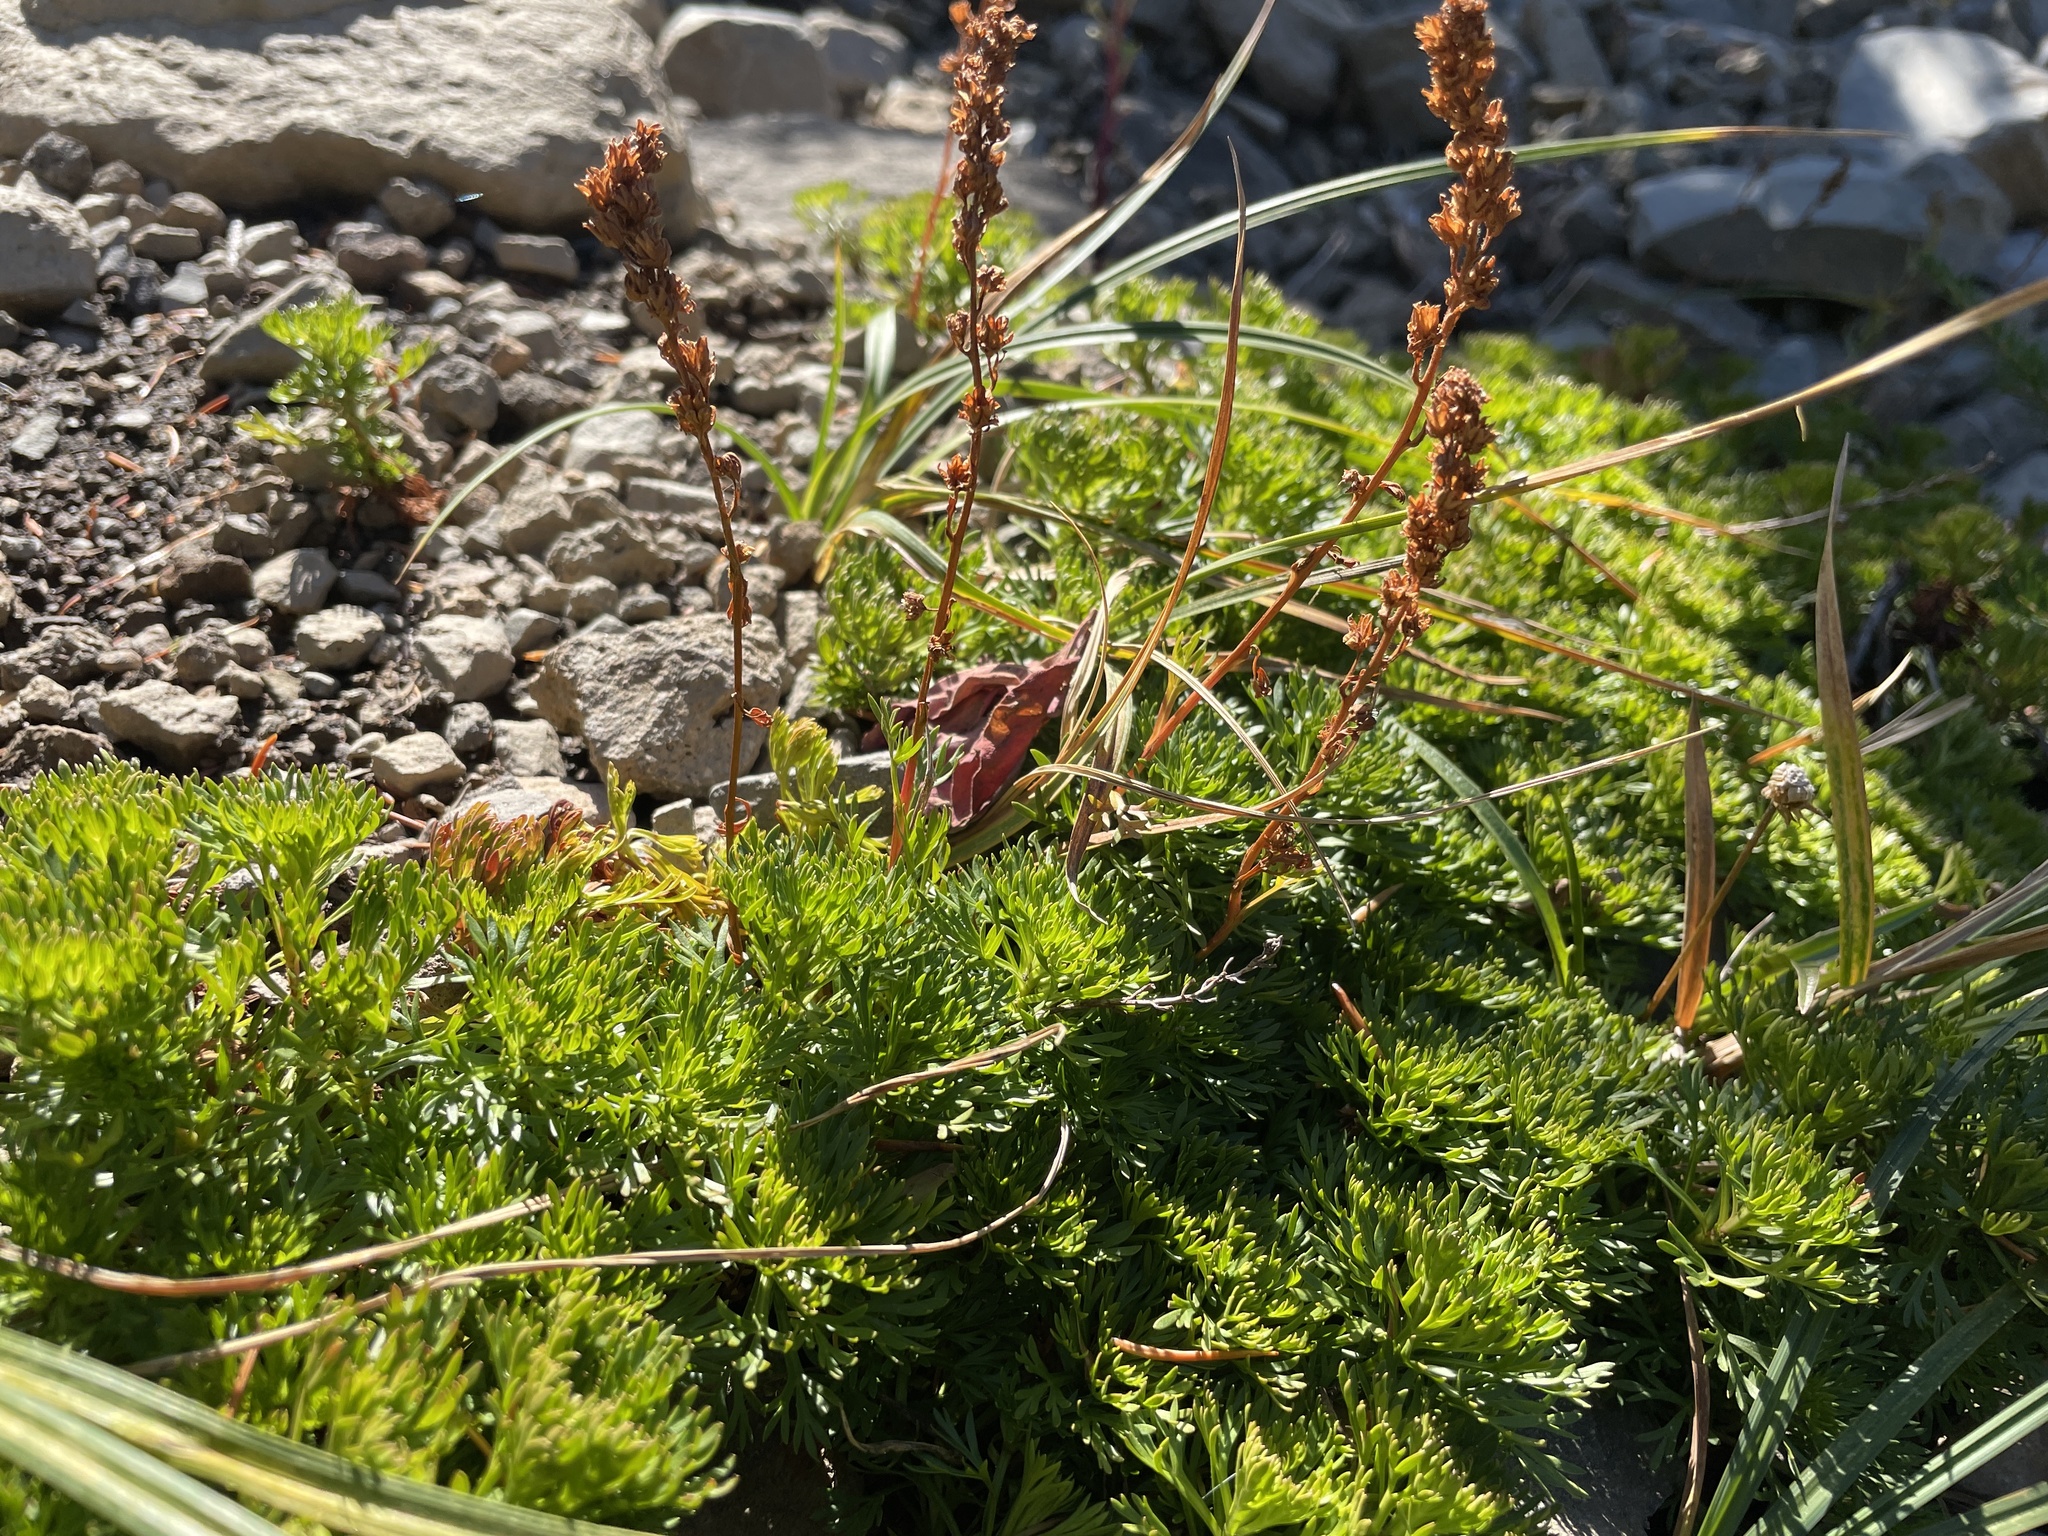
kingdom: Plantae
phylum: Tracheophyta
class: Magnoliopsida
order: Rosales
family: Rosaceae
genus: Luetkea
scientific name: Luetkea pectinata
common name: Partridgefoot
